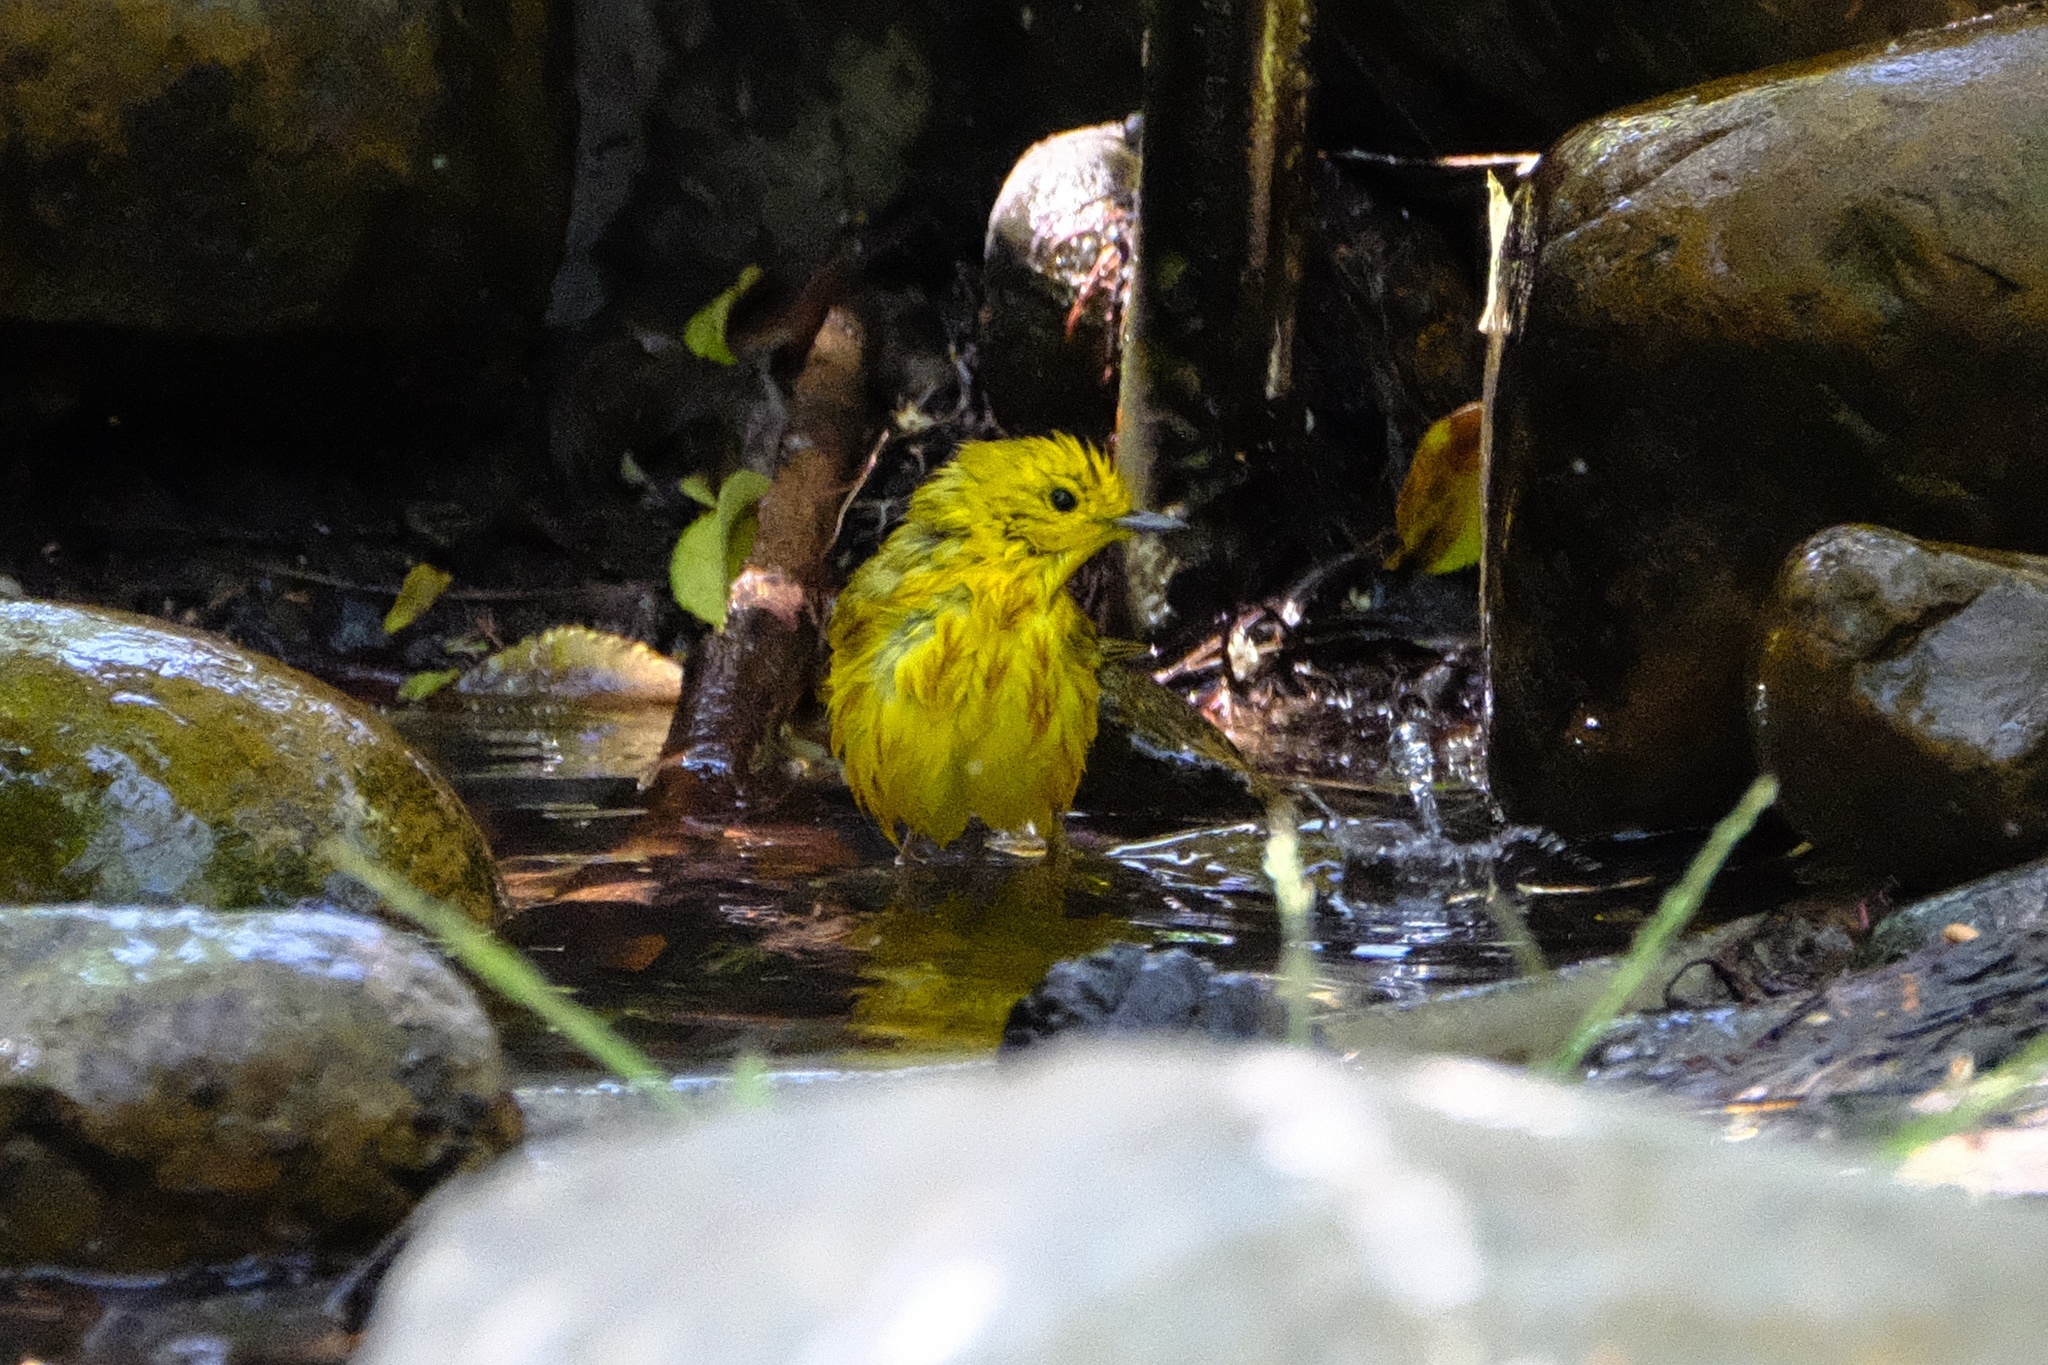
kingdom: Animalia
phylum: Chordata
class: Aves
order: Passeriformes
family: Parulidae
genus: Setophaga
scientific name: Setophaga petechia
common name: Yellow warbler
